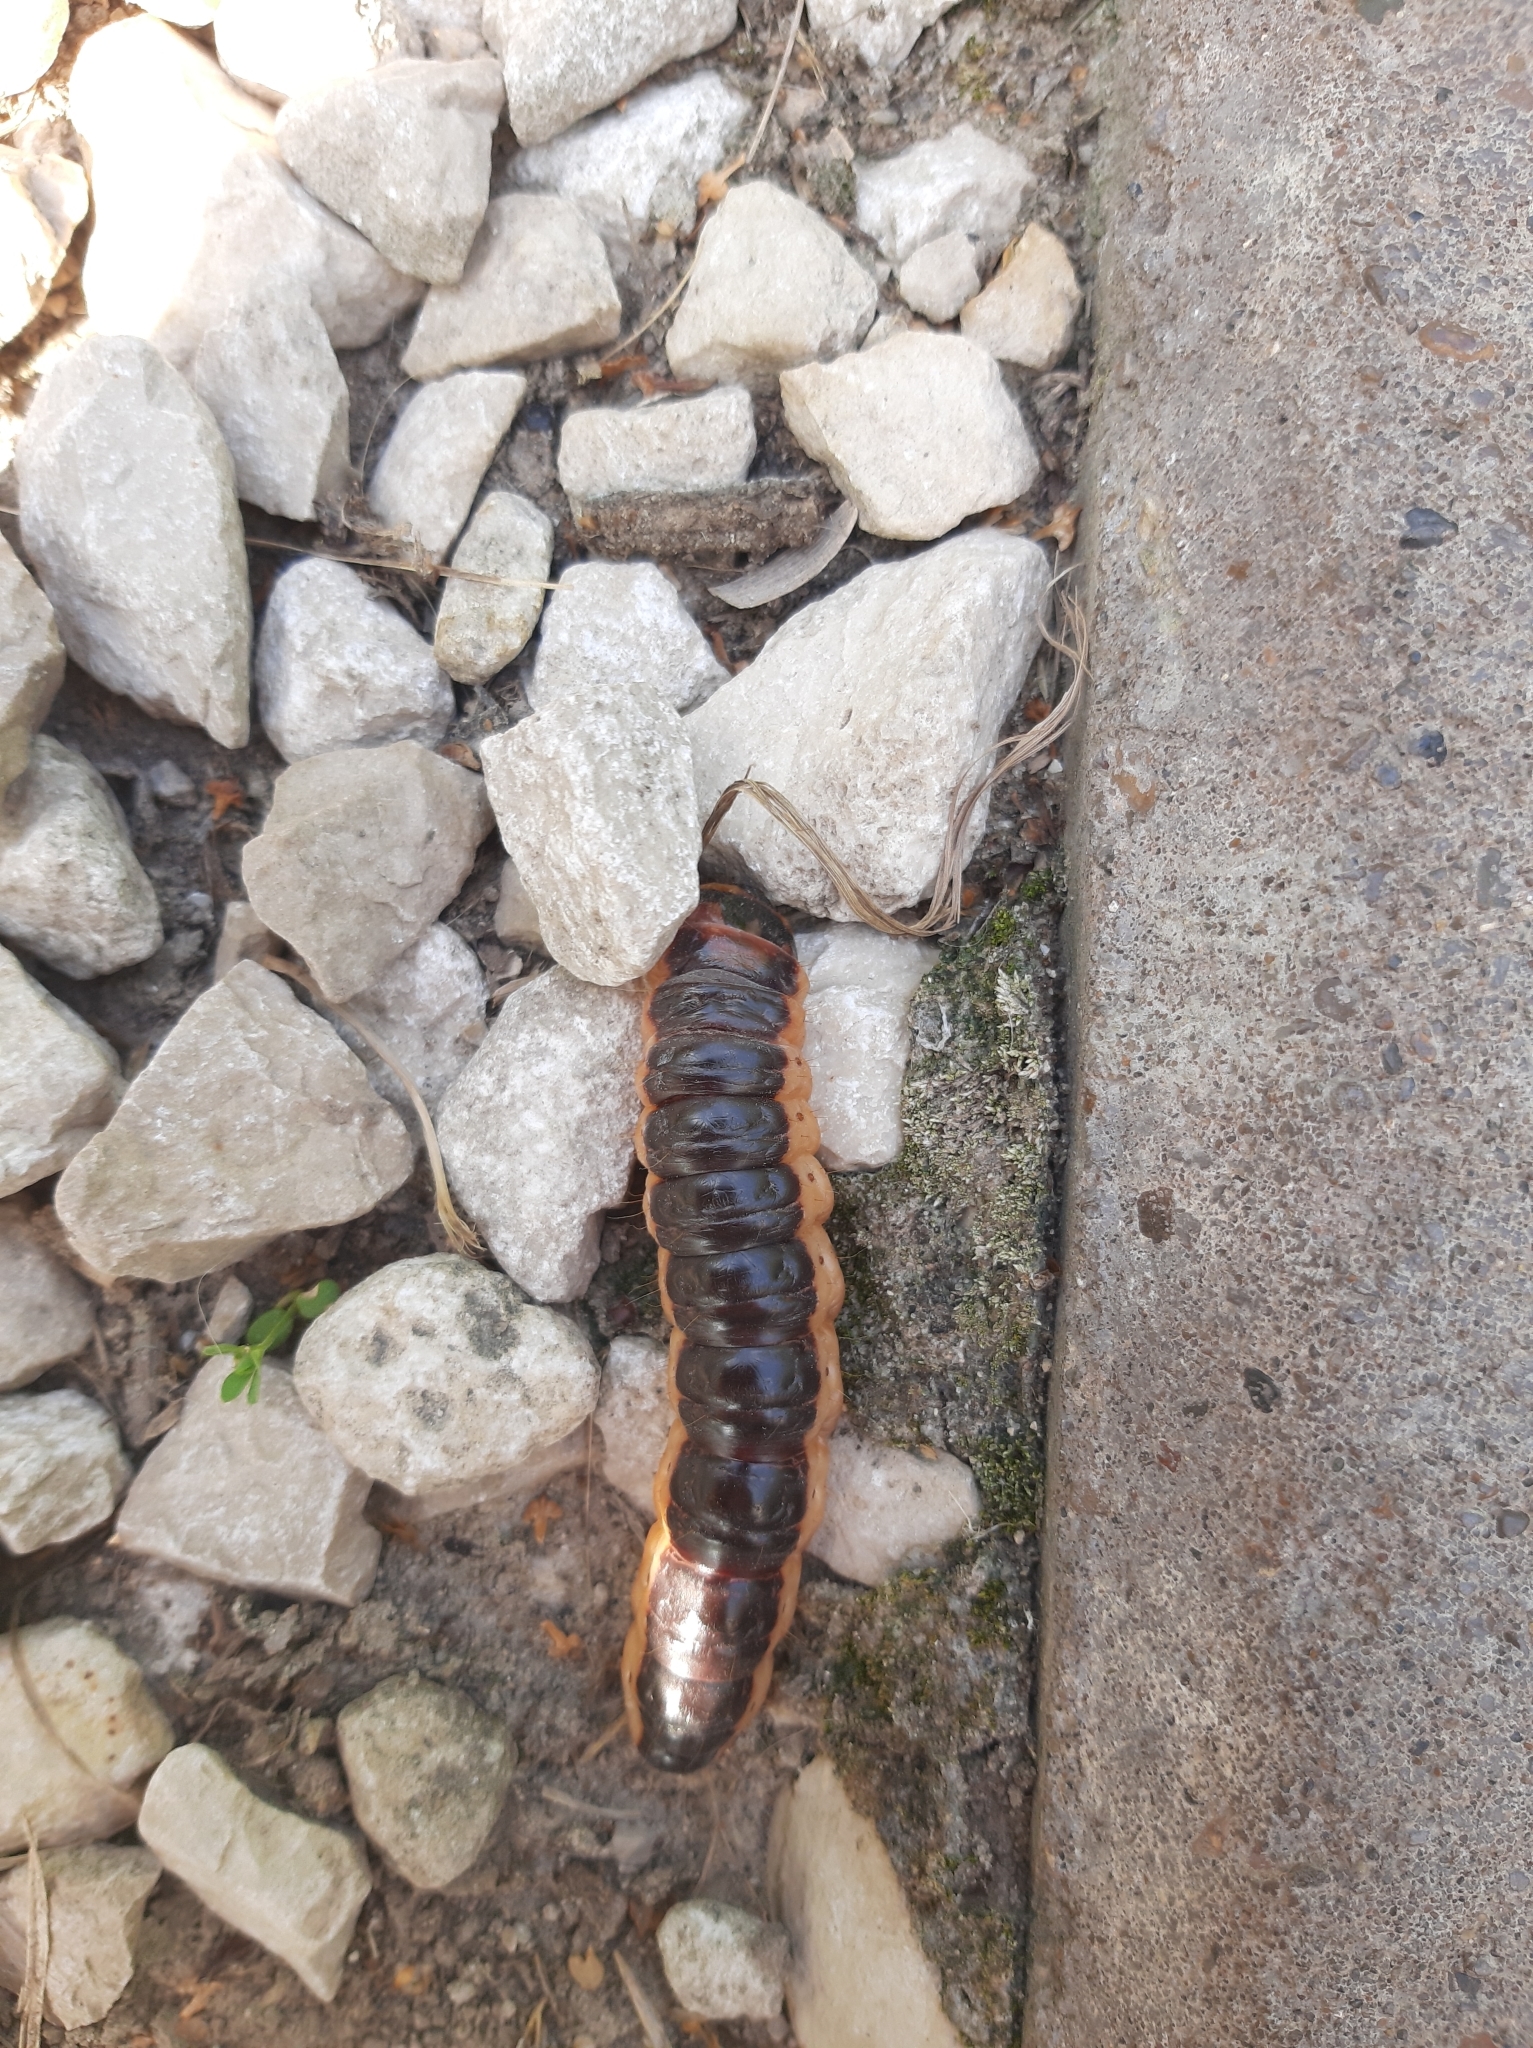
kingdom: Animalia
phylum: Arthropoda
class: Insecta
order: Lepidoptera
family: Cossidae
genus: Cossus
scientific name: Cossus cossus
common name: Goat moth
